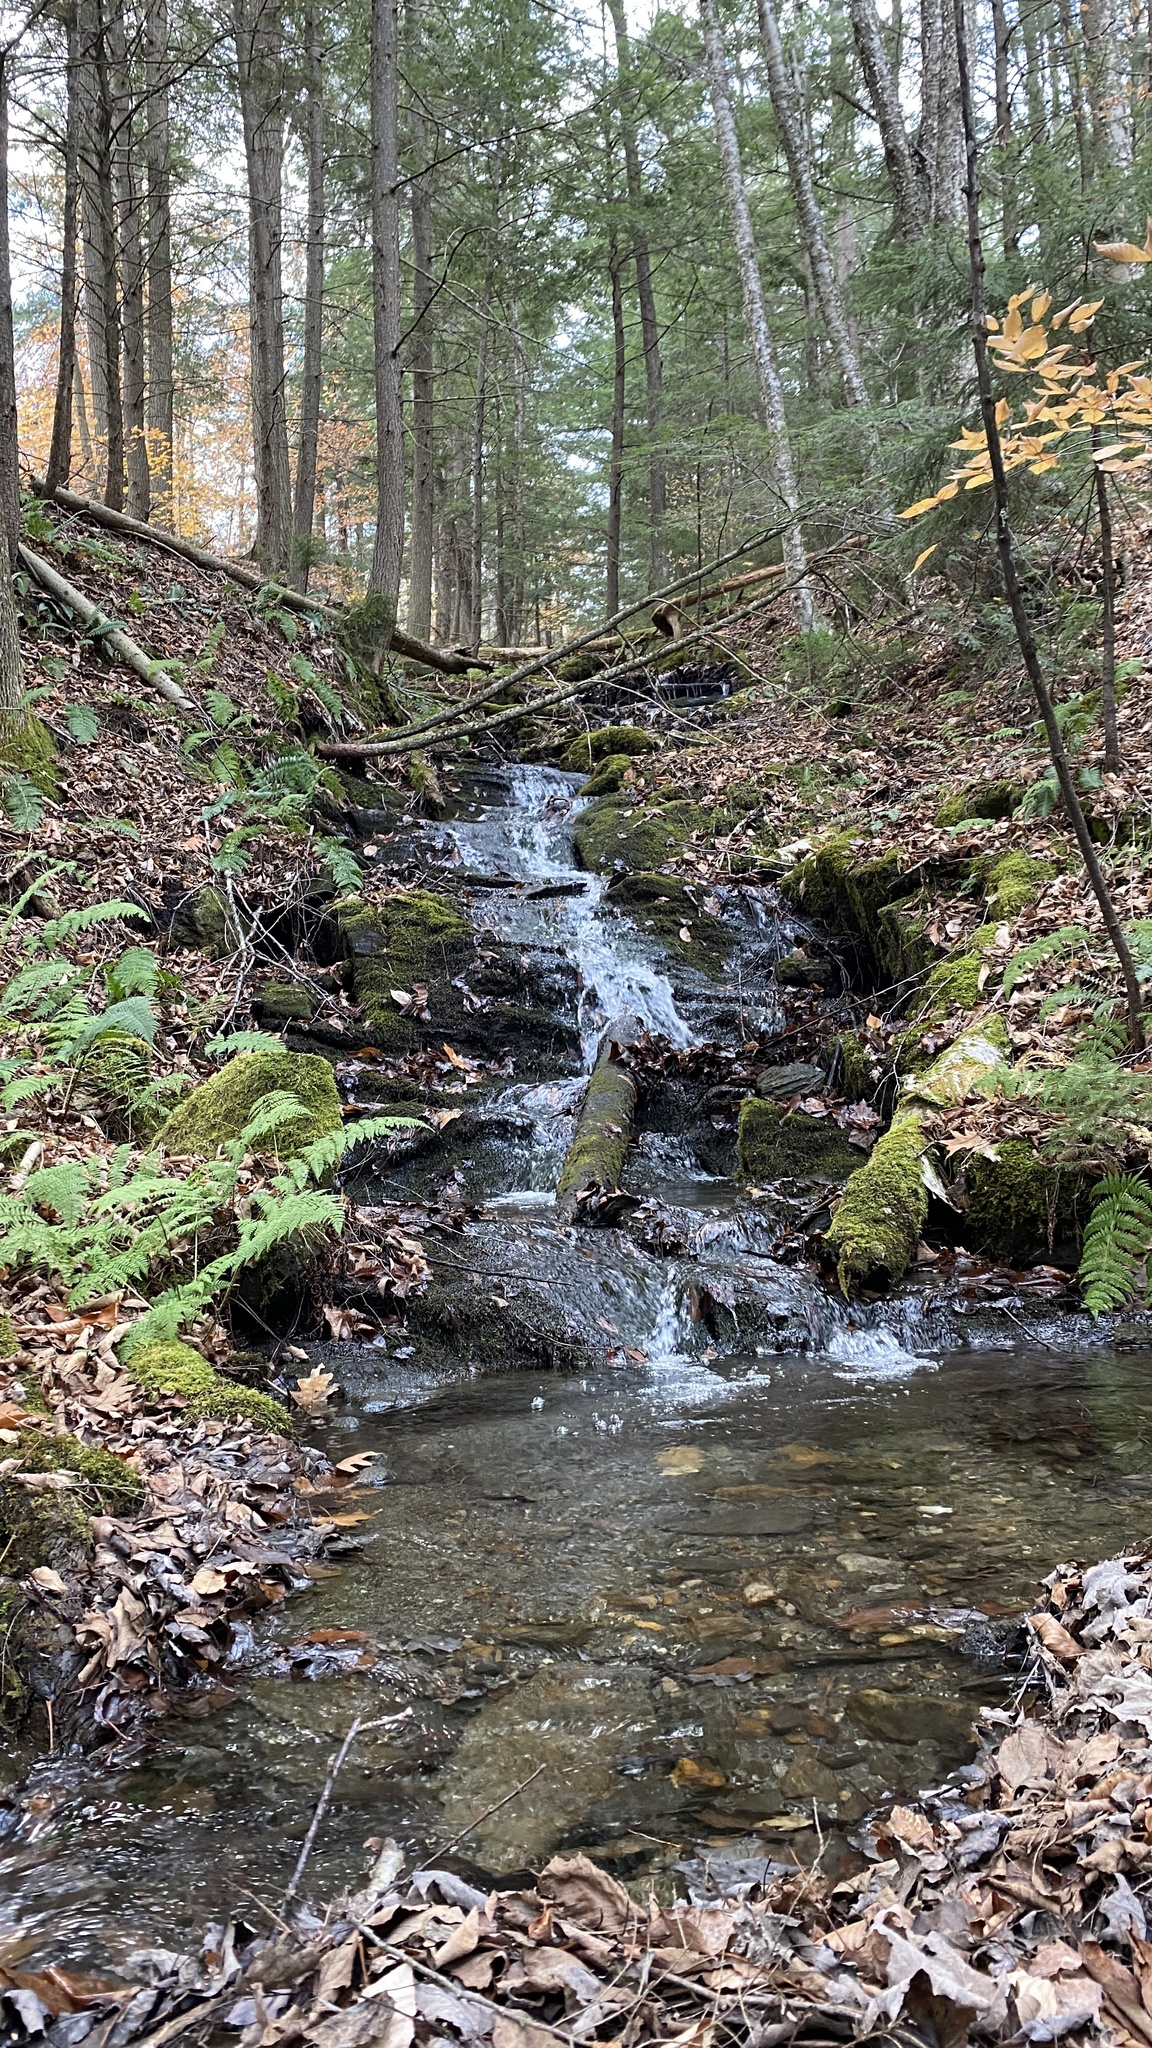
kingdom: Plantae
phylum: Tracheophyta
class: Pinopsida
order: Pinales
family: Pinaceae
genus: Tsuga
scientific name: Tsuga canadensis
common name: Eastern hemlock
